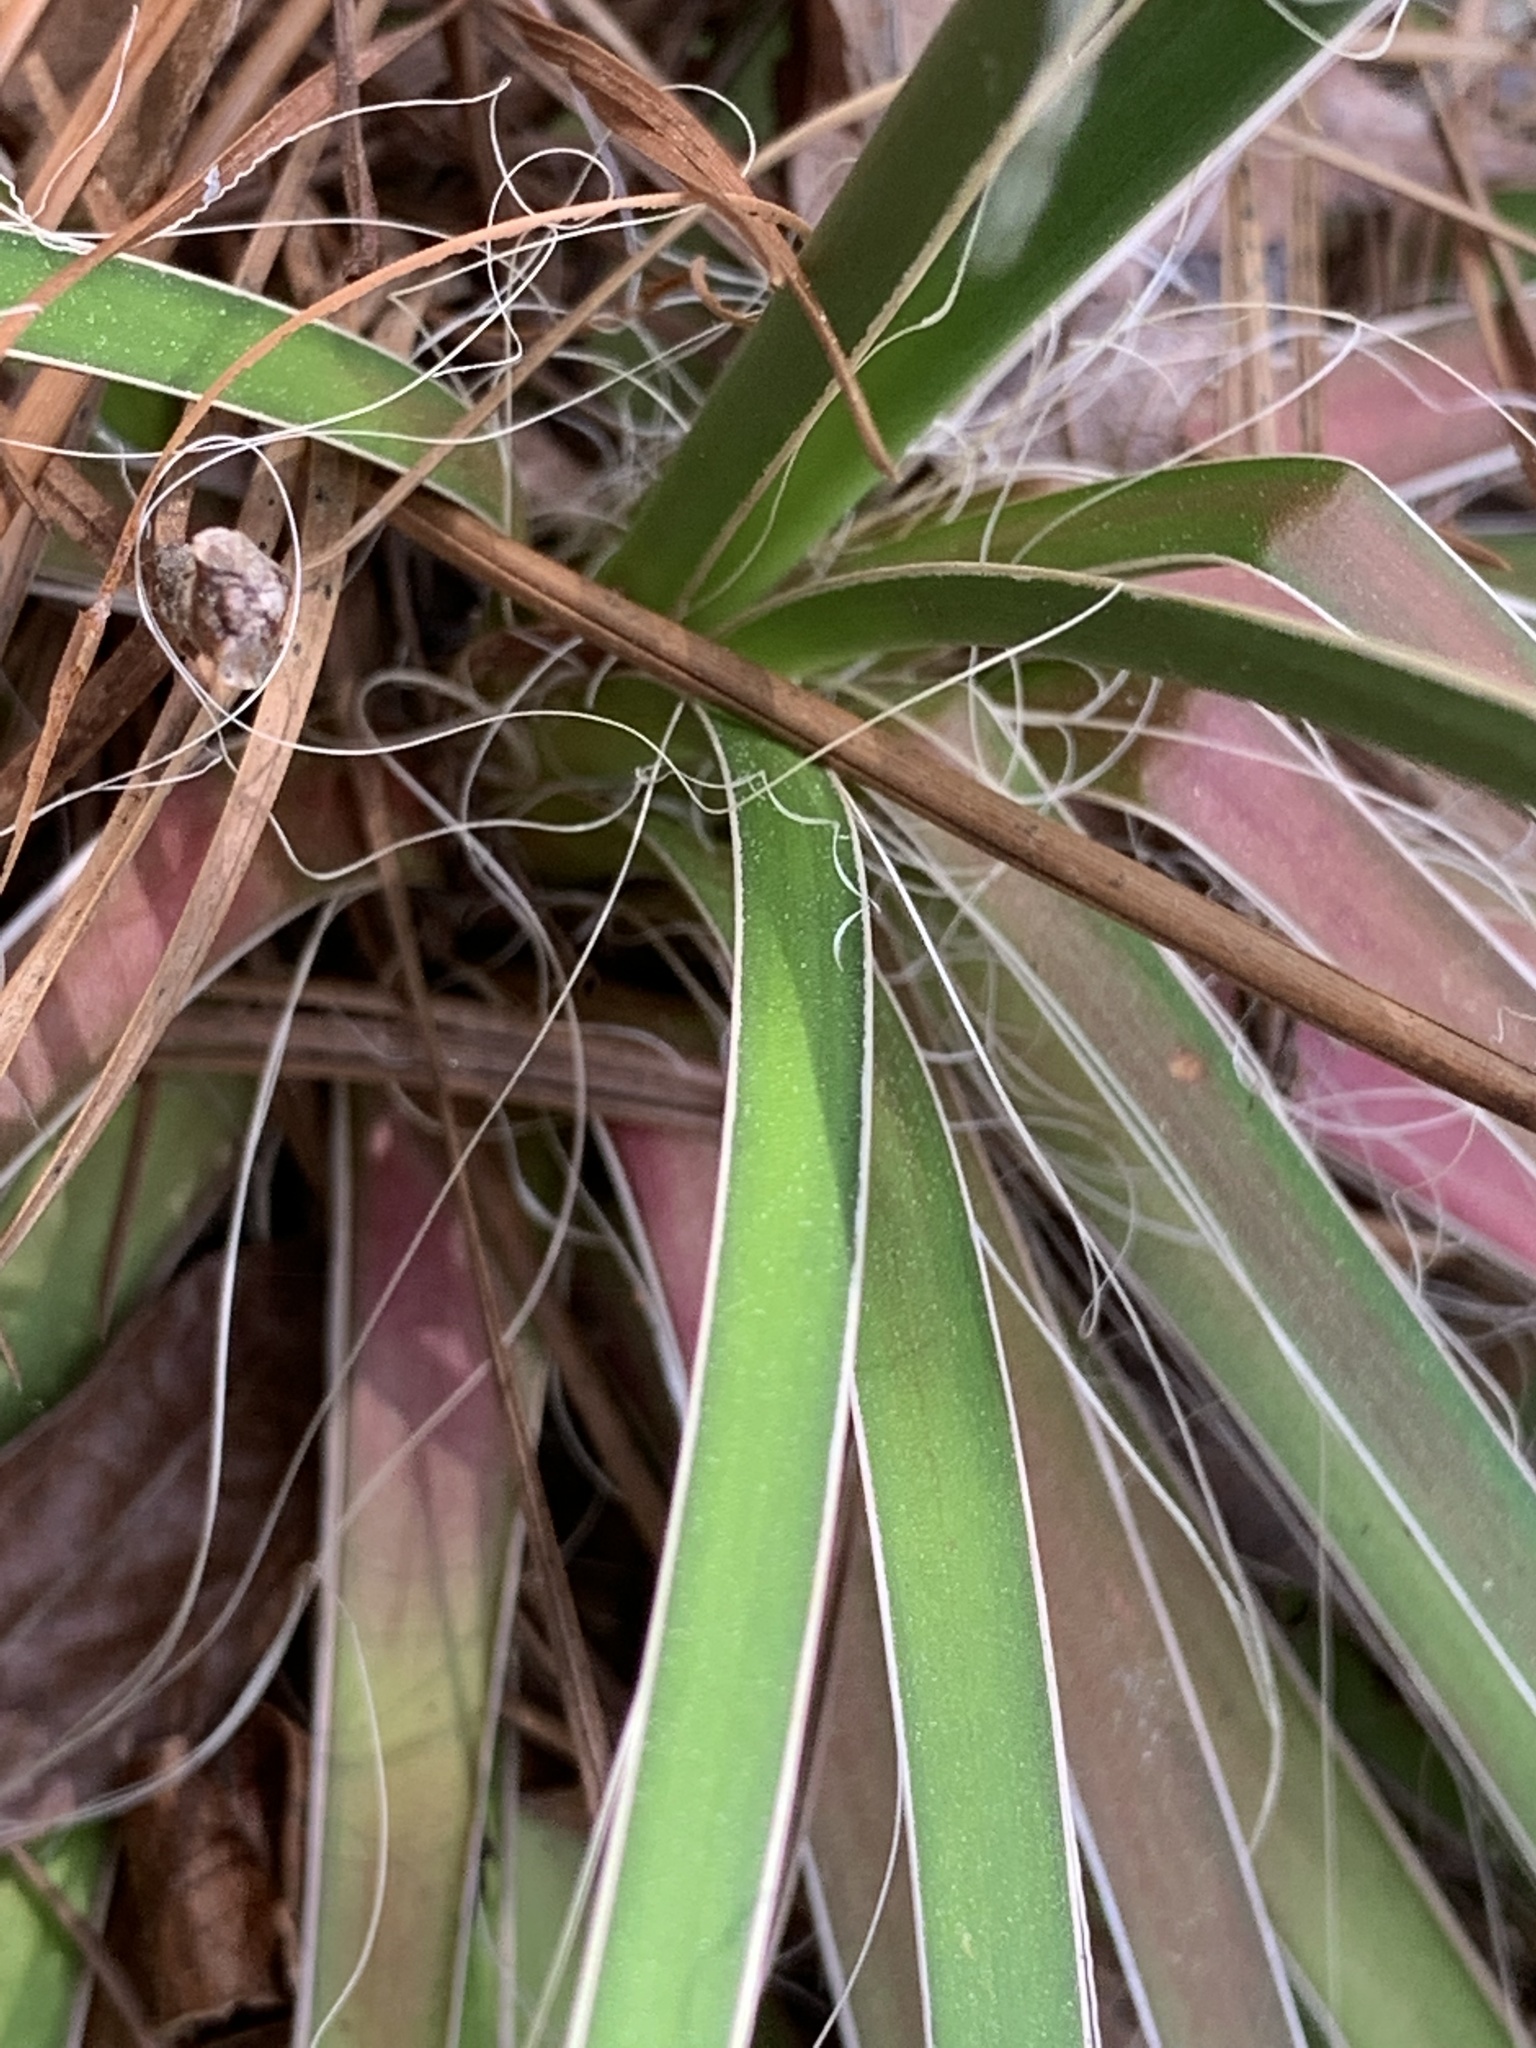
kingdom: Plantae
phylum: Tracheophyta
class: Liliopsida
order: Asparagales
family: Asparagaceae
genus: Yucca
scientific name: Yucca flaccida
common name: Adam's-needle
